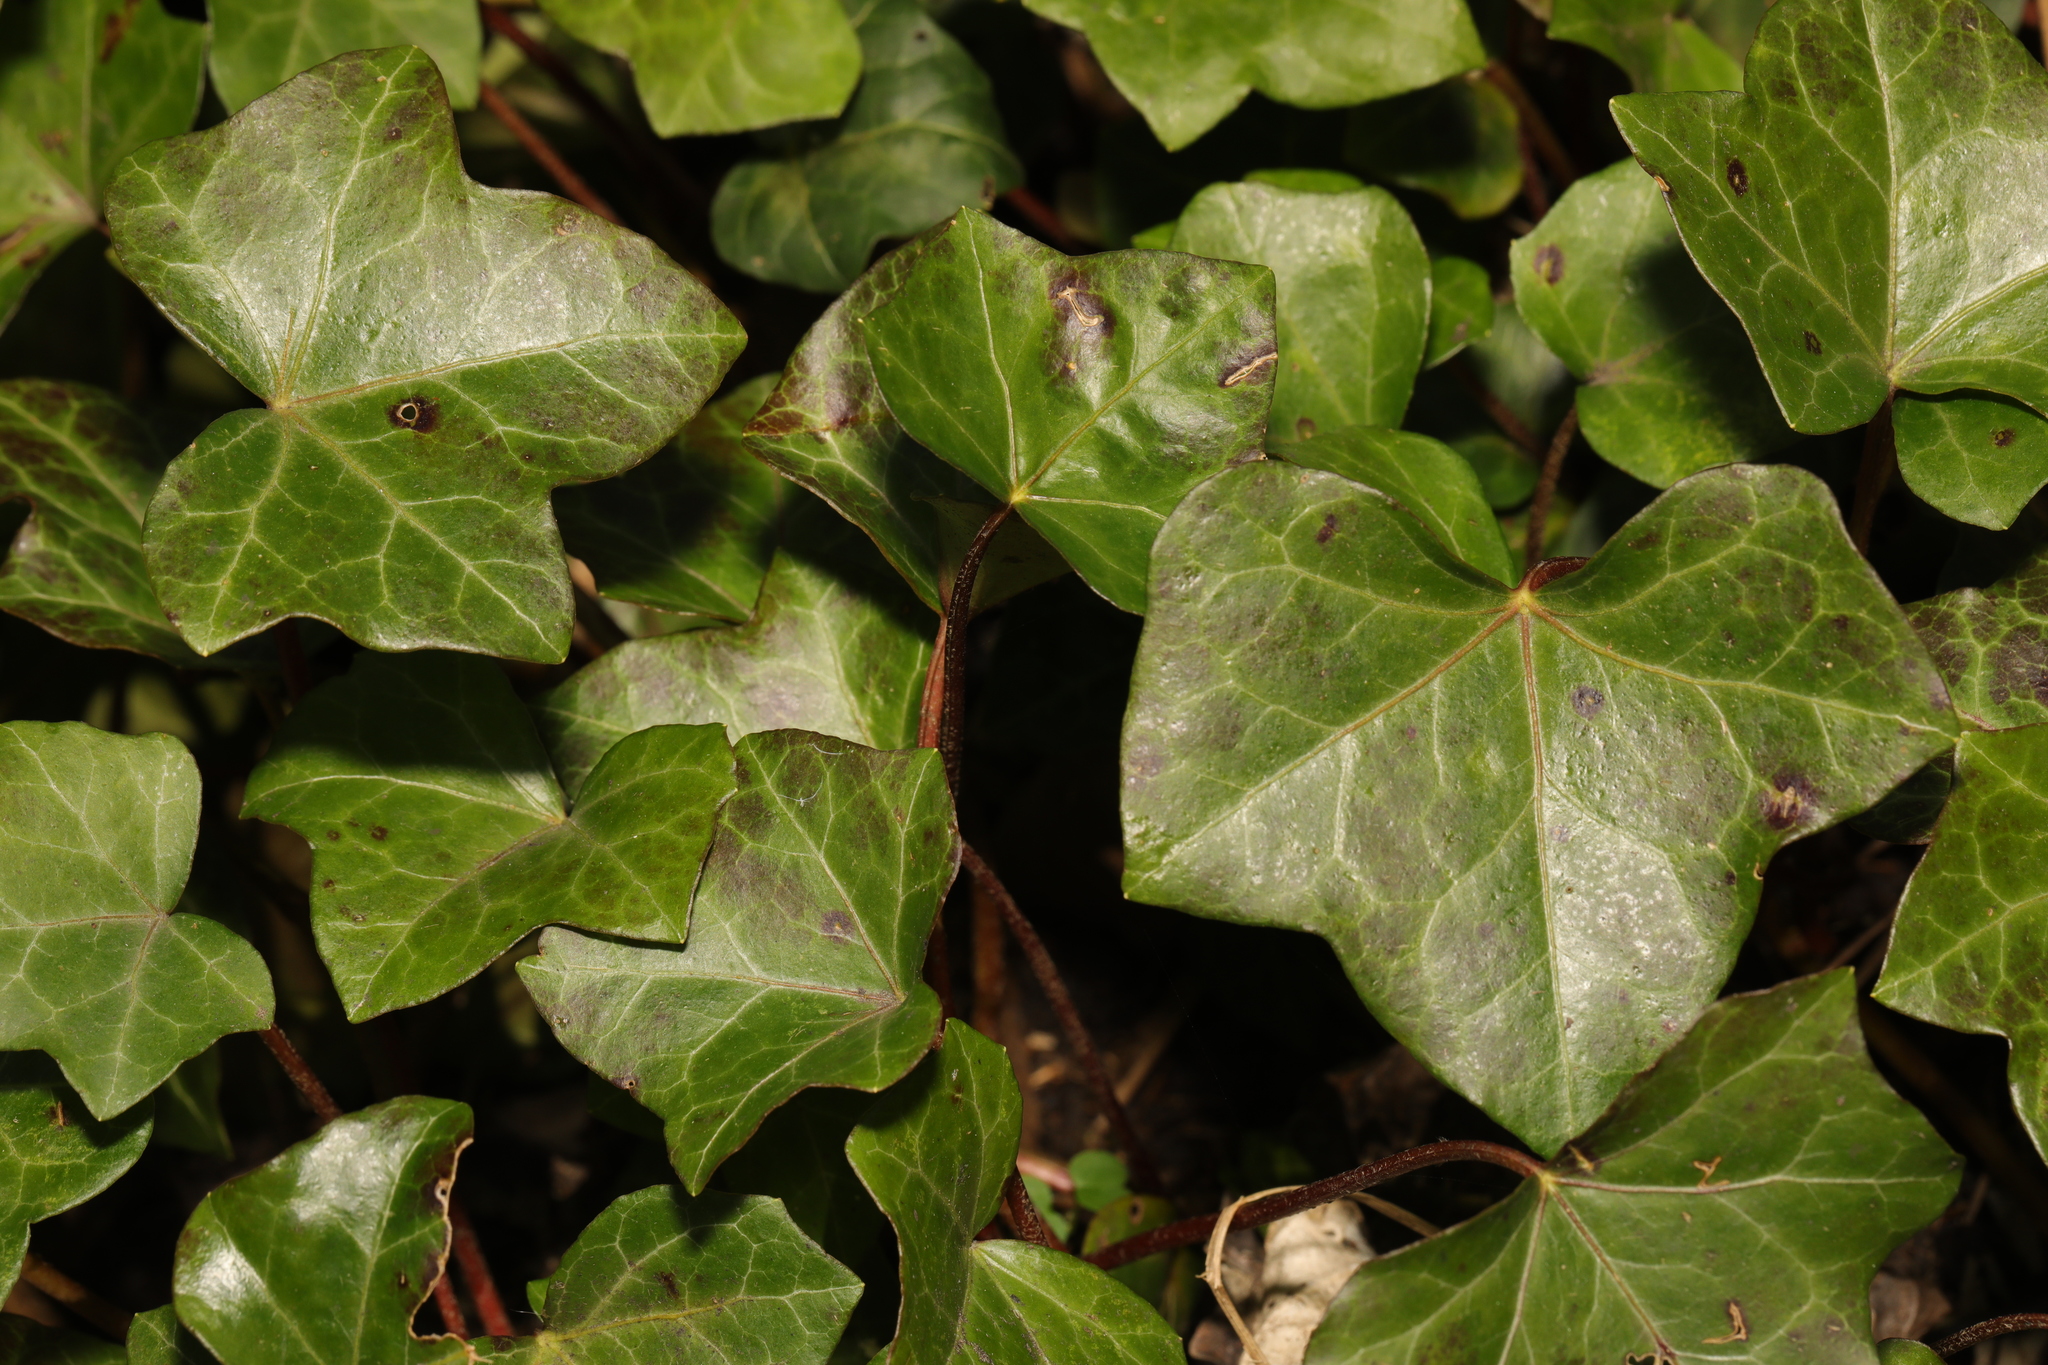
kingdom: Plantae
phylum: Tracheophyta
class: Magnoliopsida
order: Apiales
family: Araliaceae
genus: Hedera
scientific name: Hedera helix
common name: Ivy
